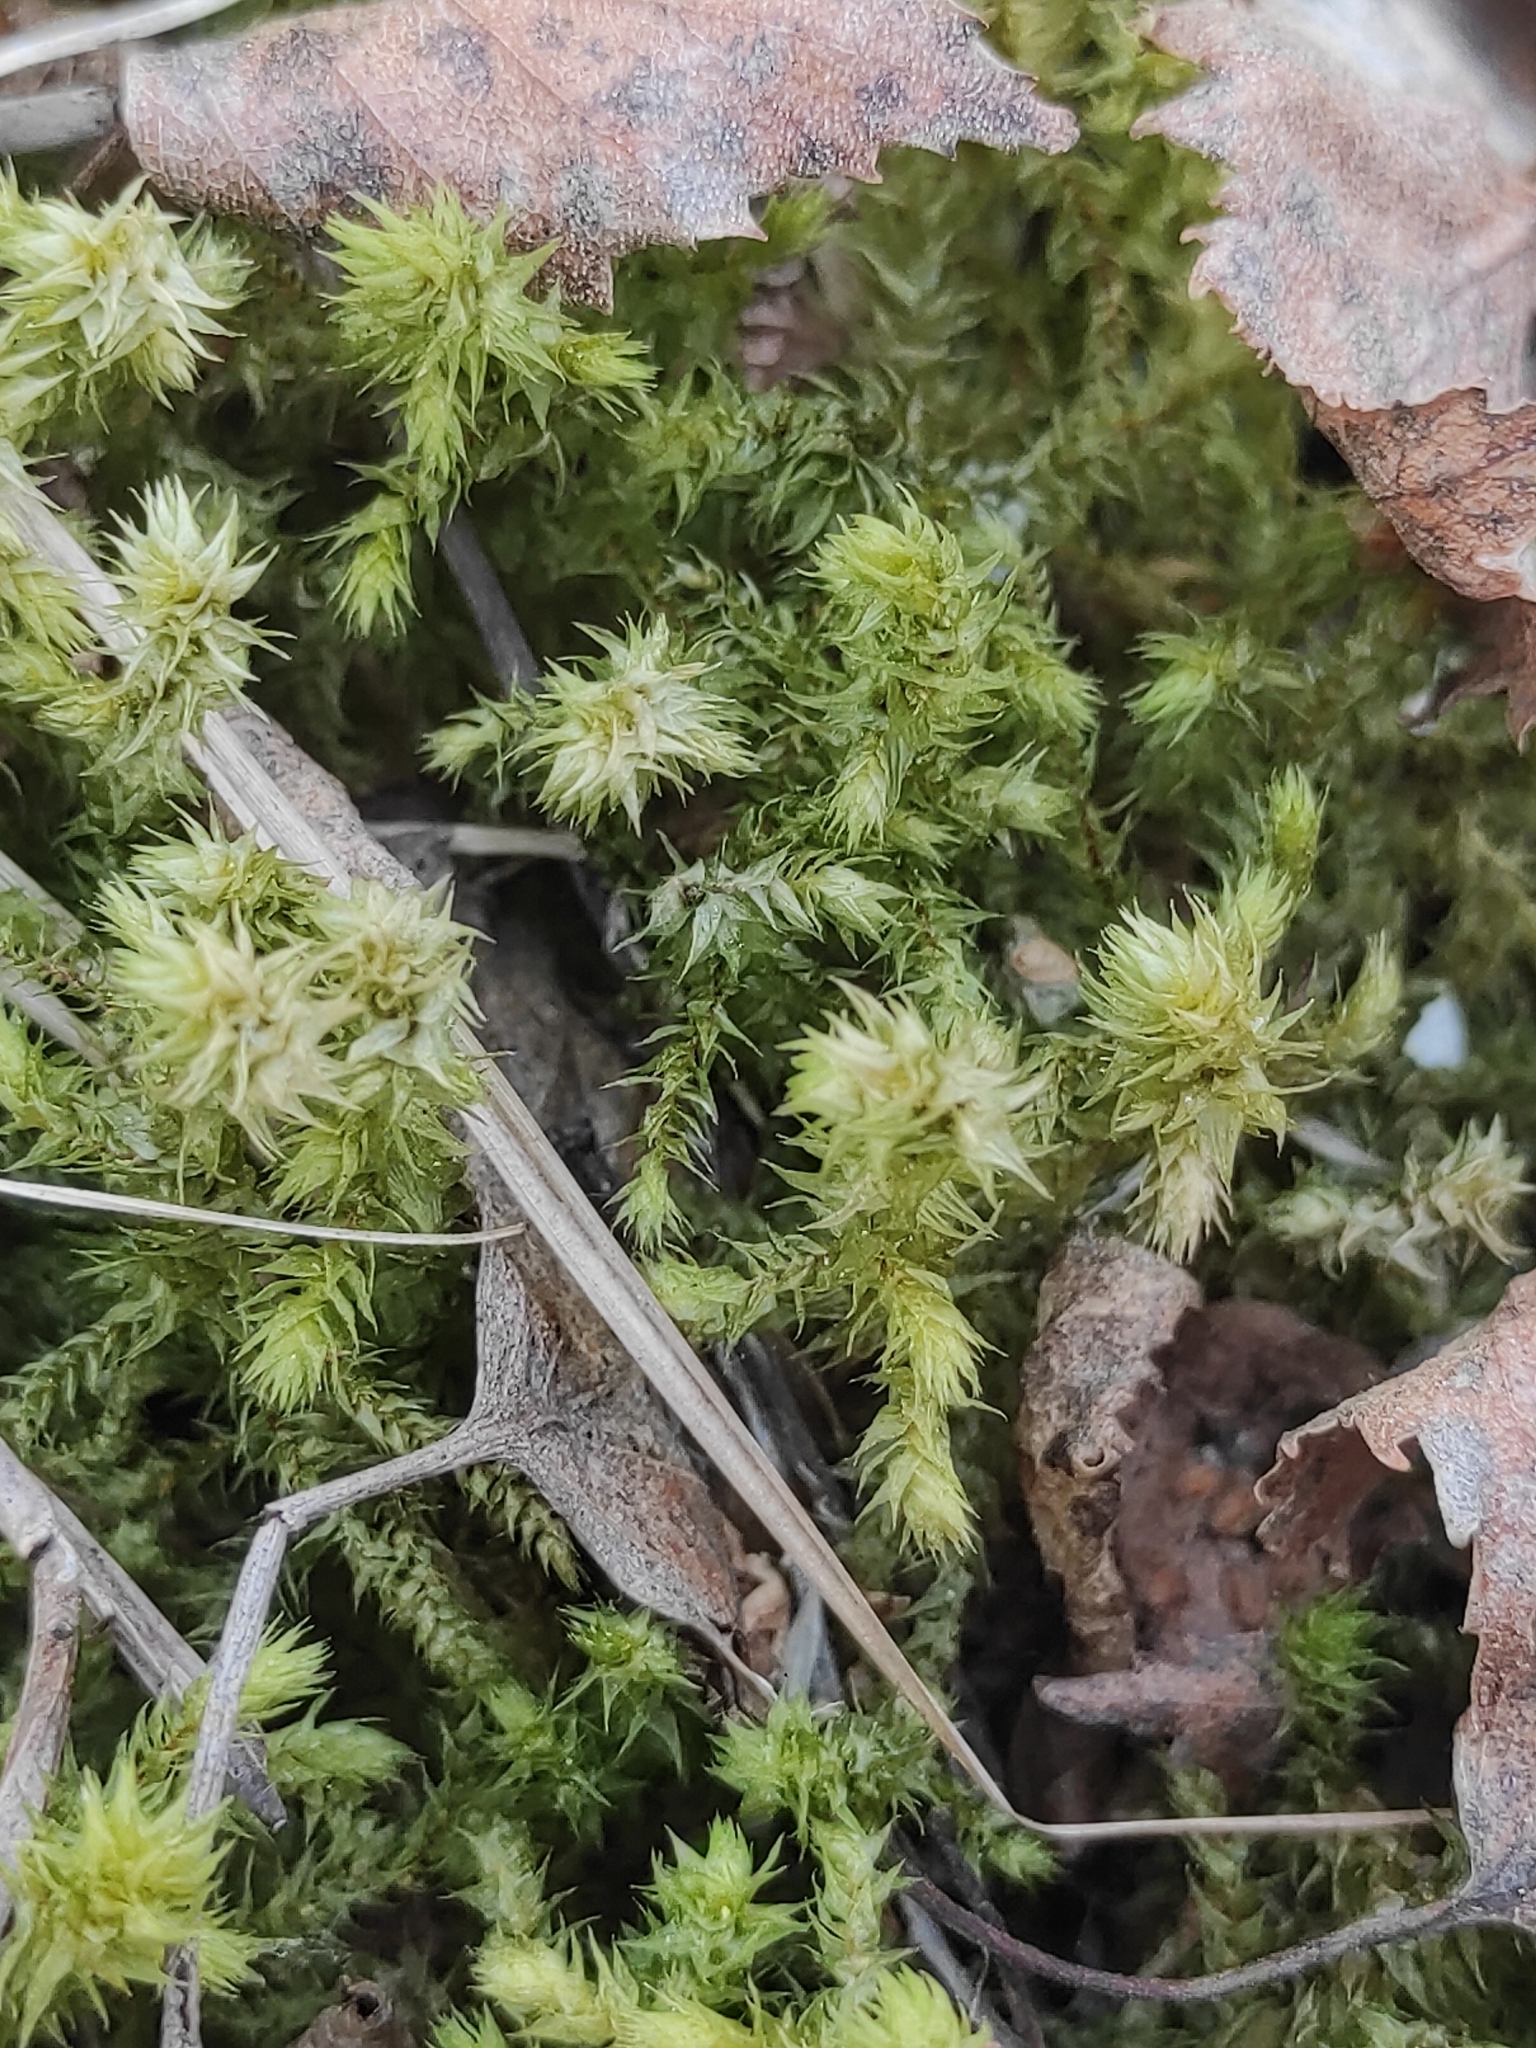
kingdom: Plantae
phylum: Bryophyta
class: Bryopsida
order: Hypnales
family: Hylocomiaceae
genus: Hylocomiadelphus
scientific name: Hylocomiadelphus triquetrus
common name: Rough goose neck moss
